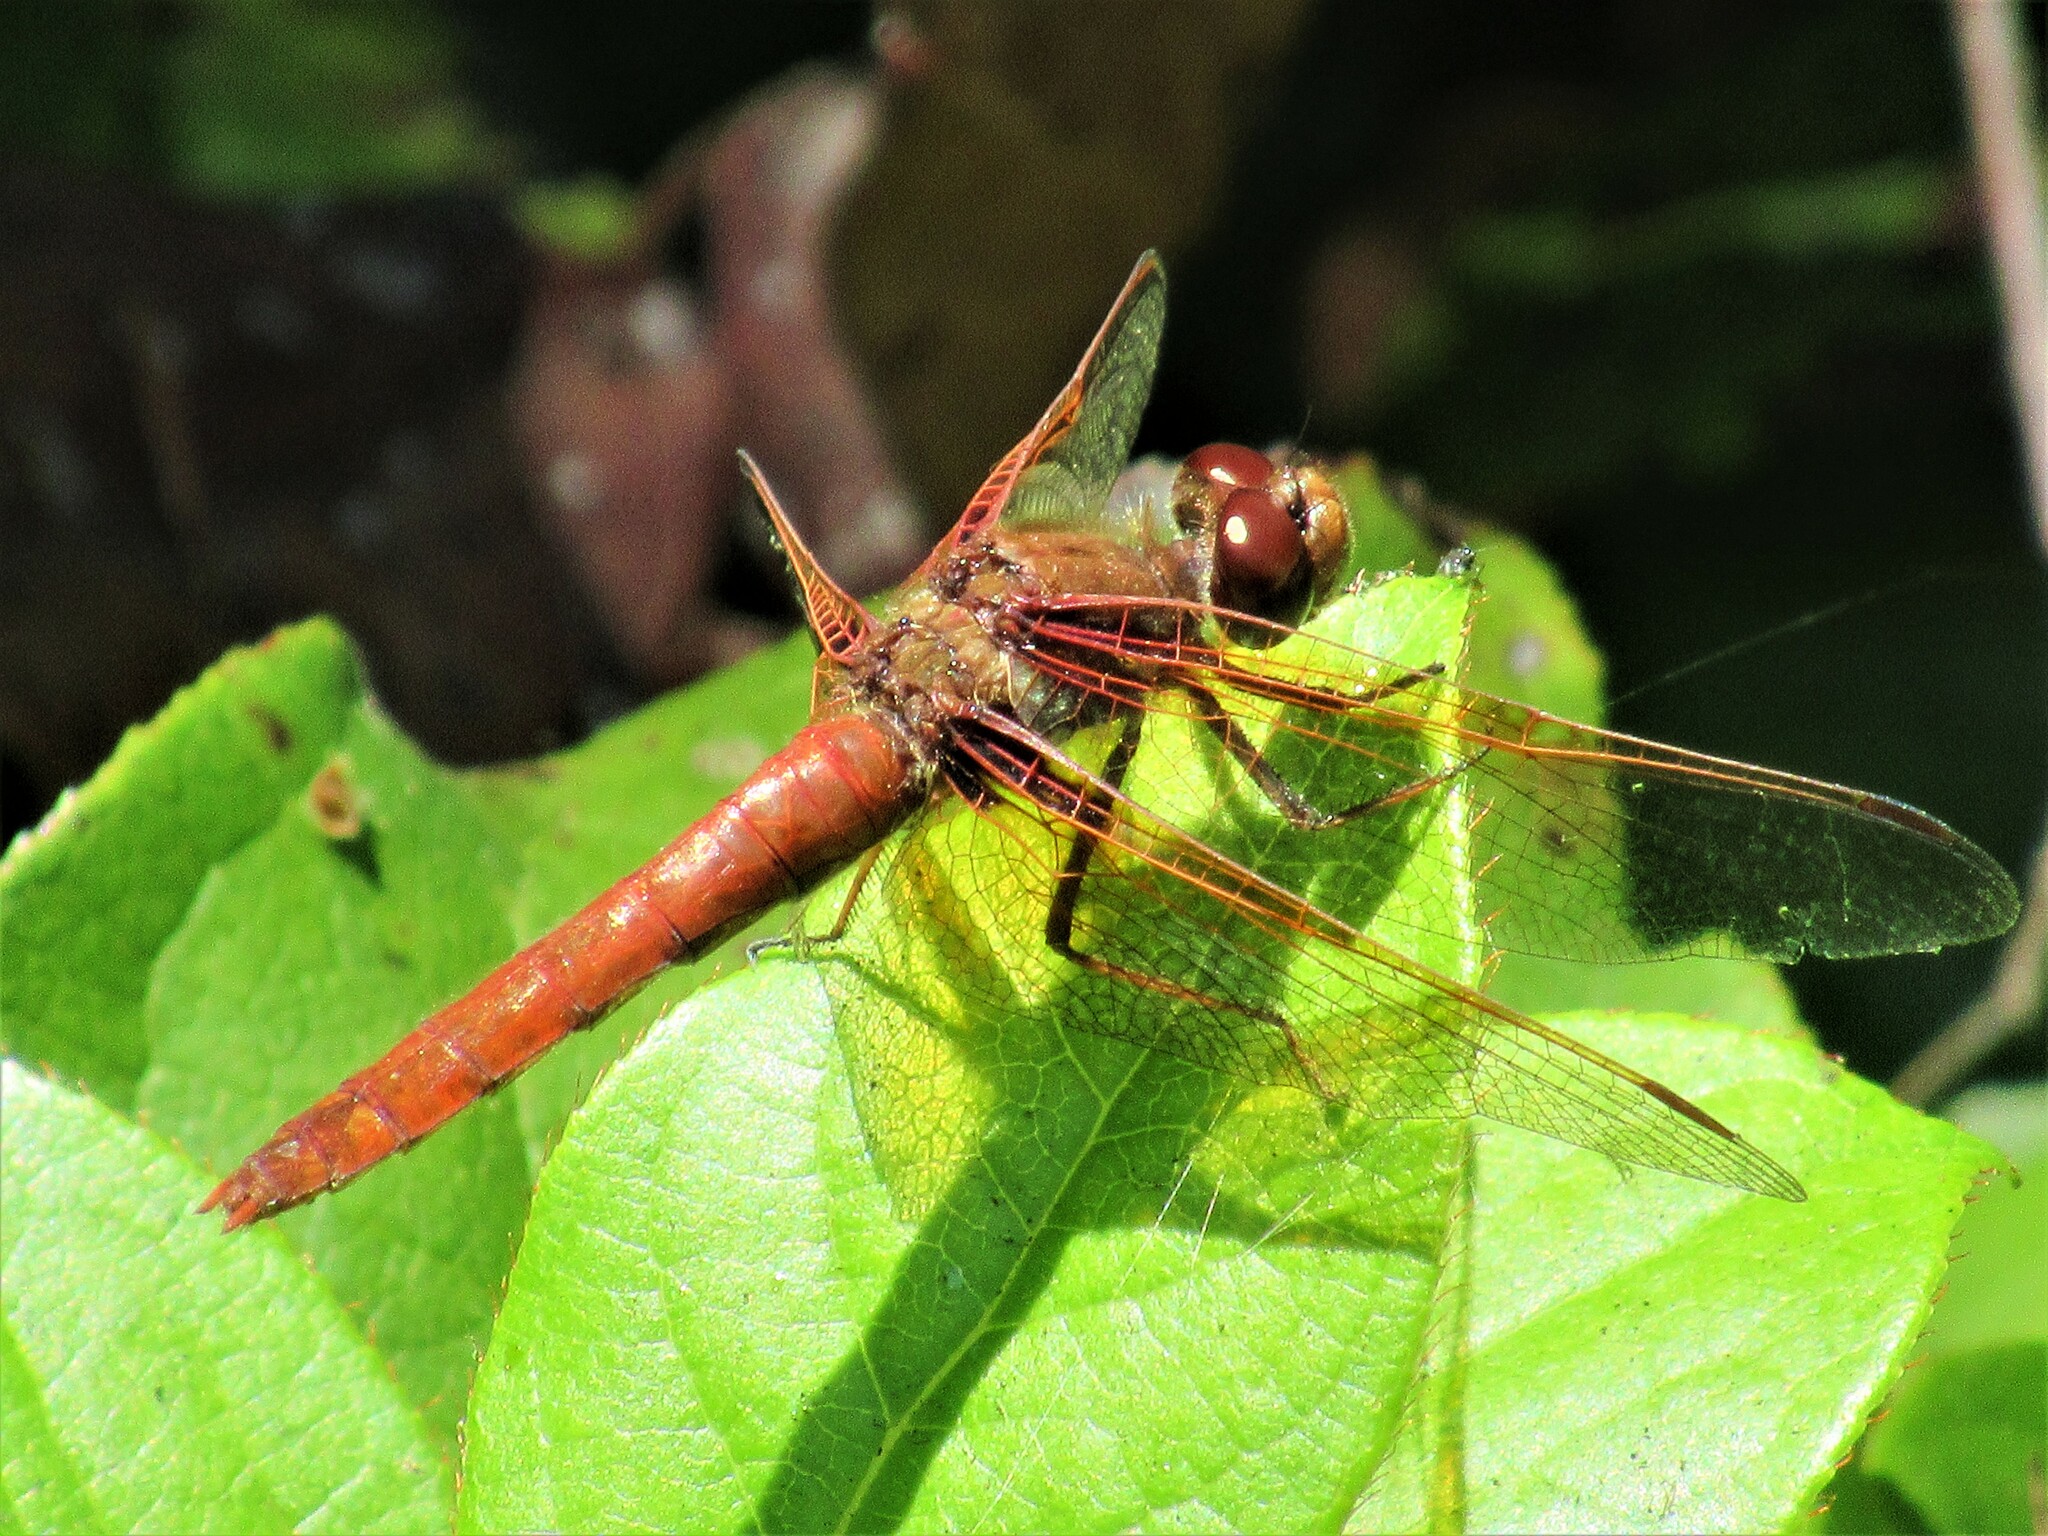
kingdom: Animalia
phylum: Arthropoda
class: Insecta
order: Odonata
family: Libellulidae
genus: Sympetrum
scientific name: Sympetrum illotum
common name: Cardinal meadowhawk
